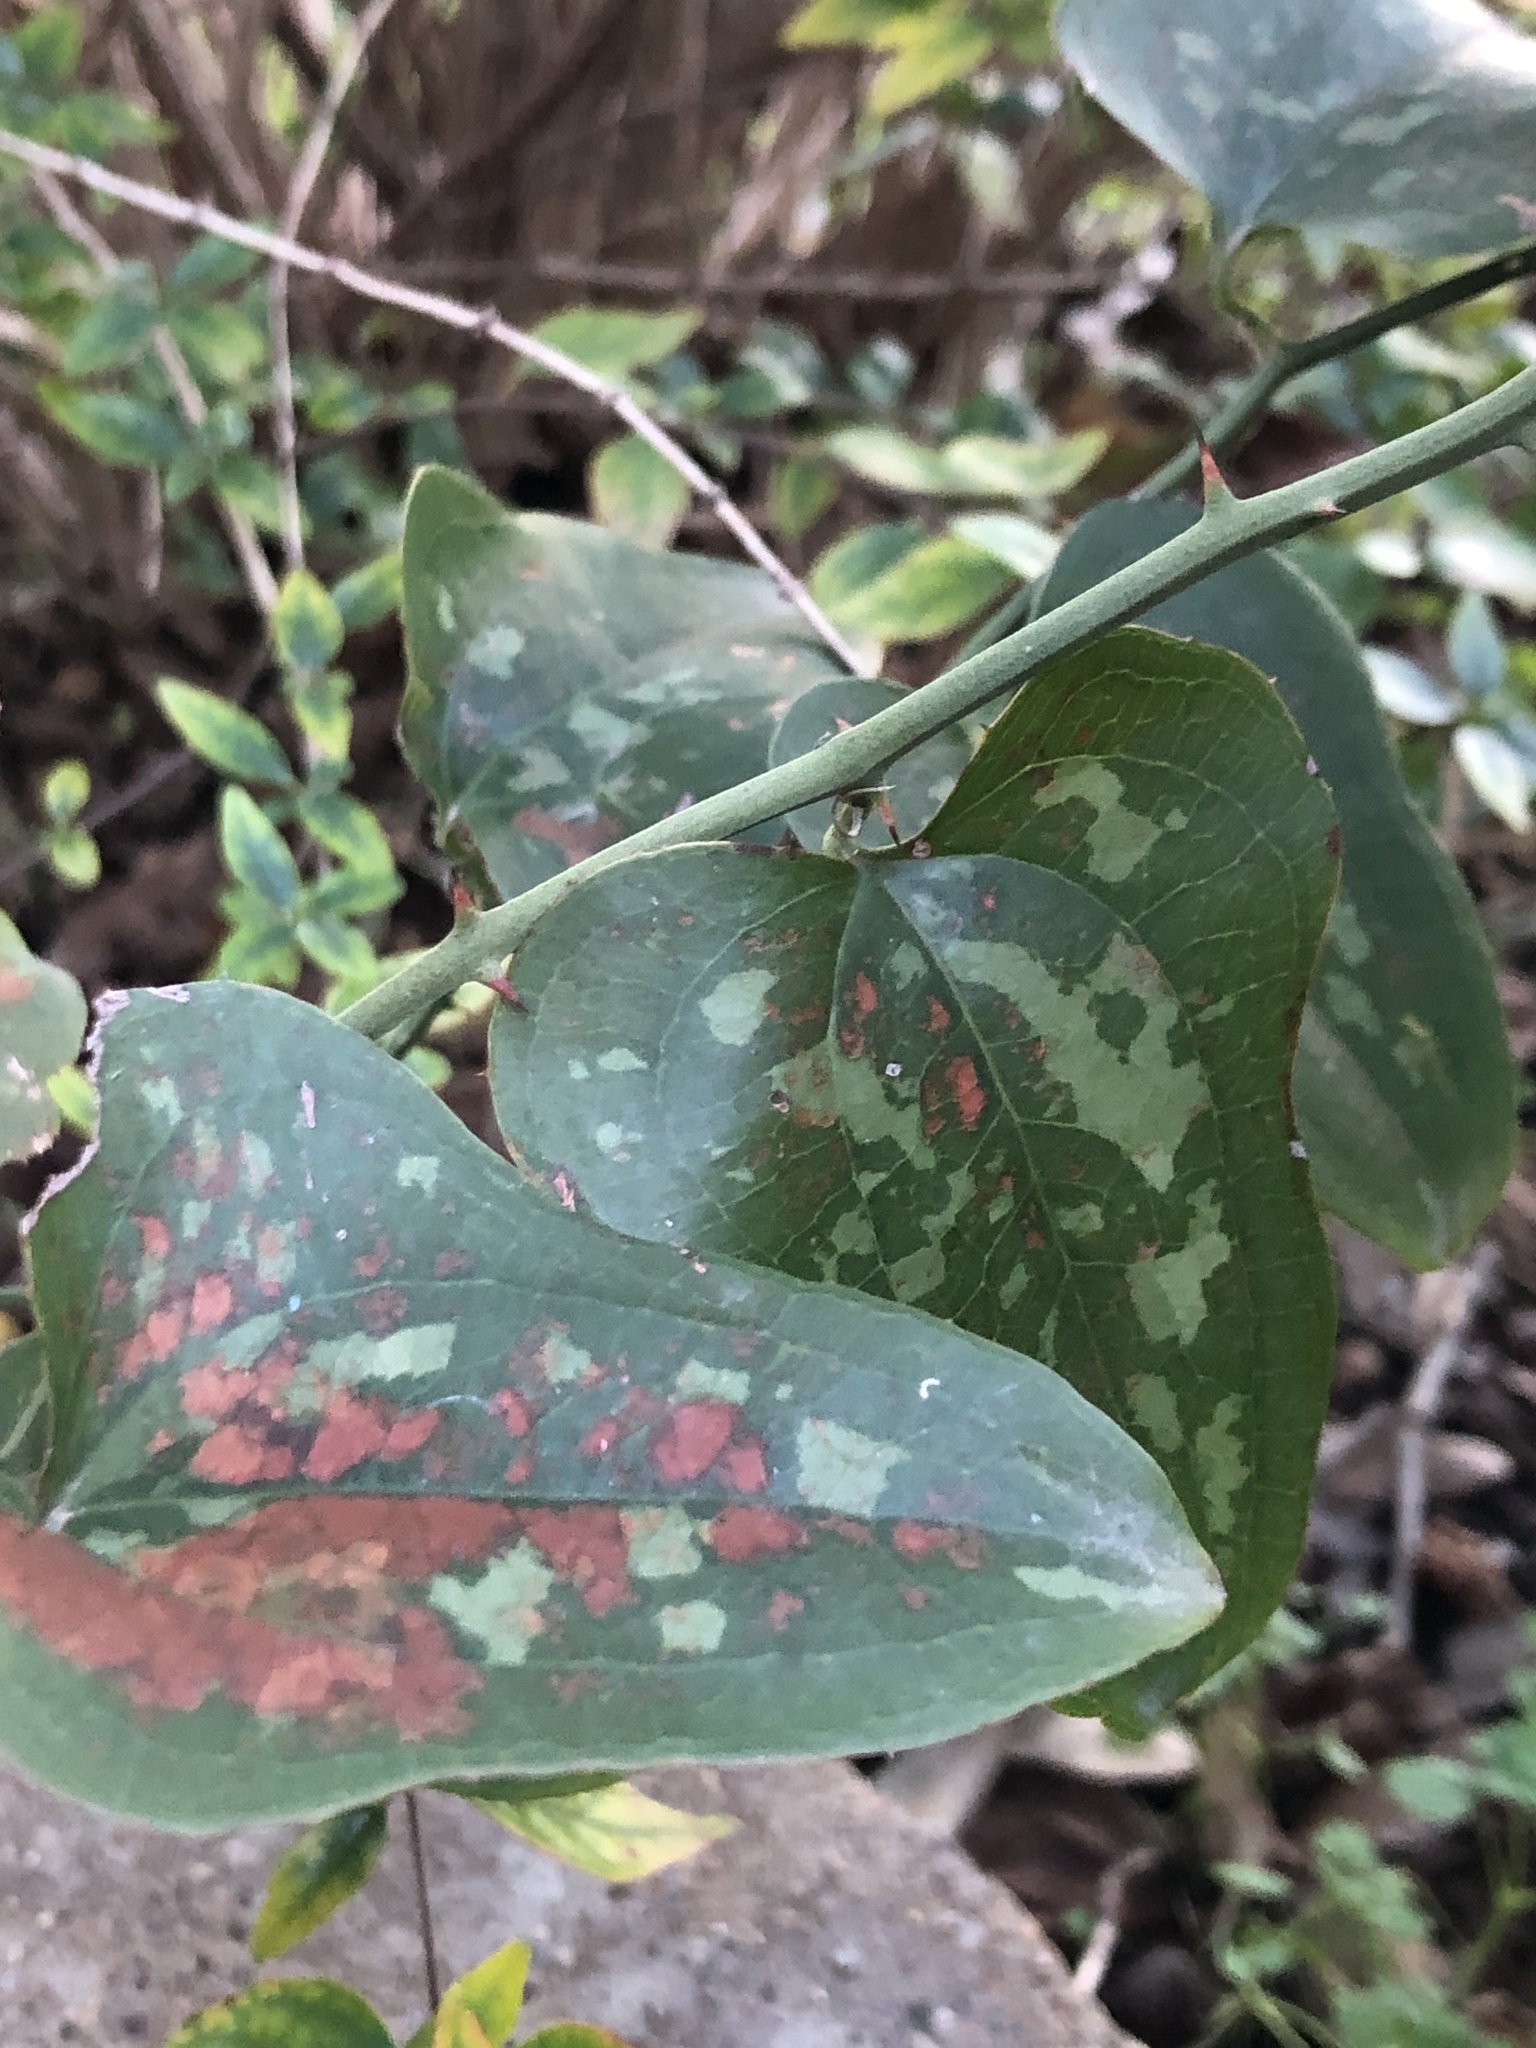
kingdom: Plantae
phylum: Tracheophyta
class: Liliopsida
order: Liliales
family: Smilacaceae
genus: Smilax
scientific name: Smilax bona-nox
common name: Catbrier
